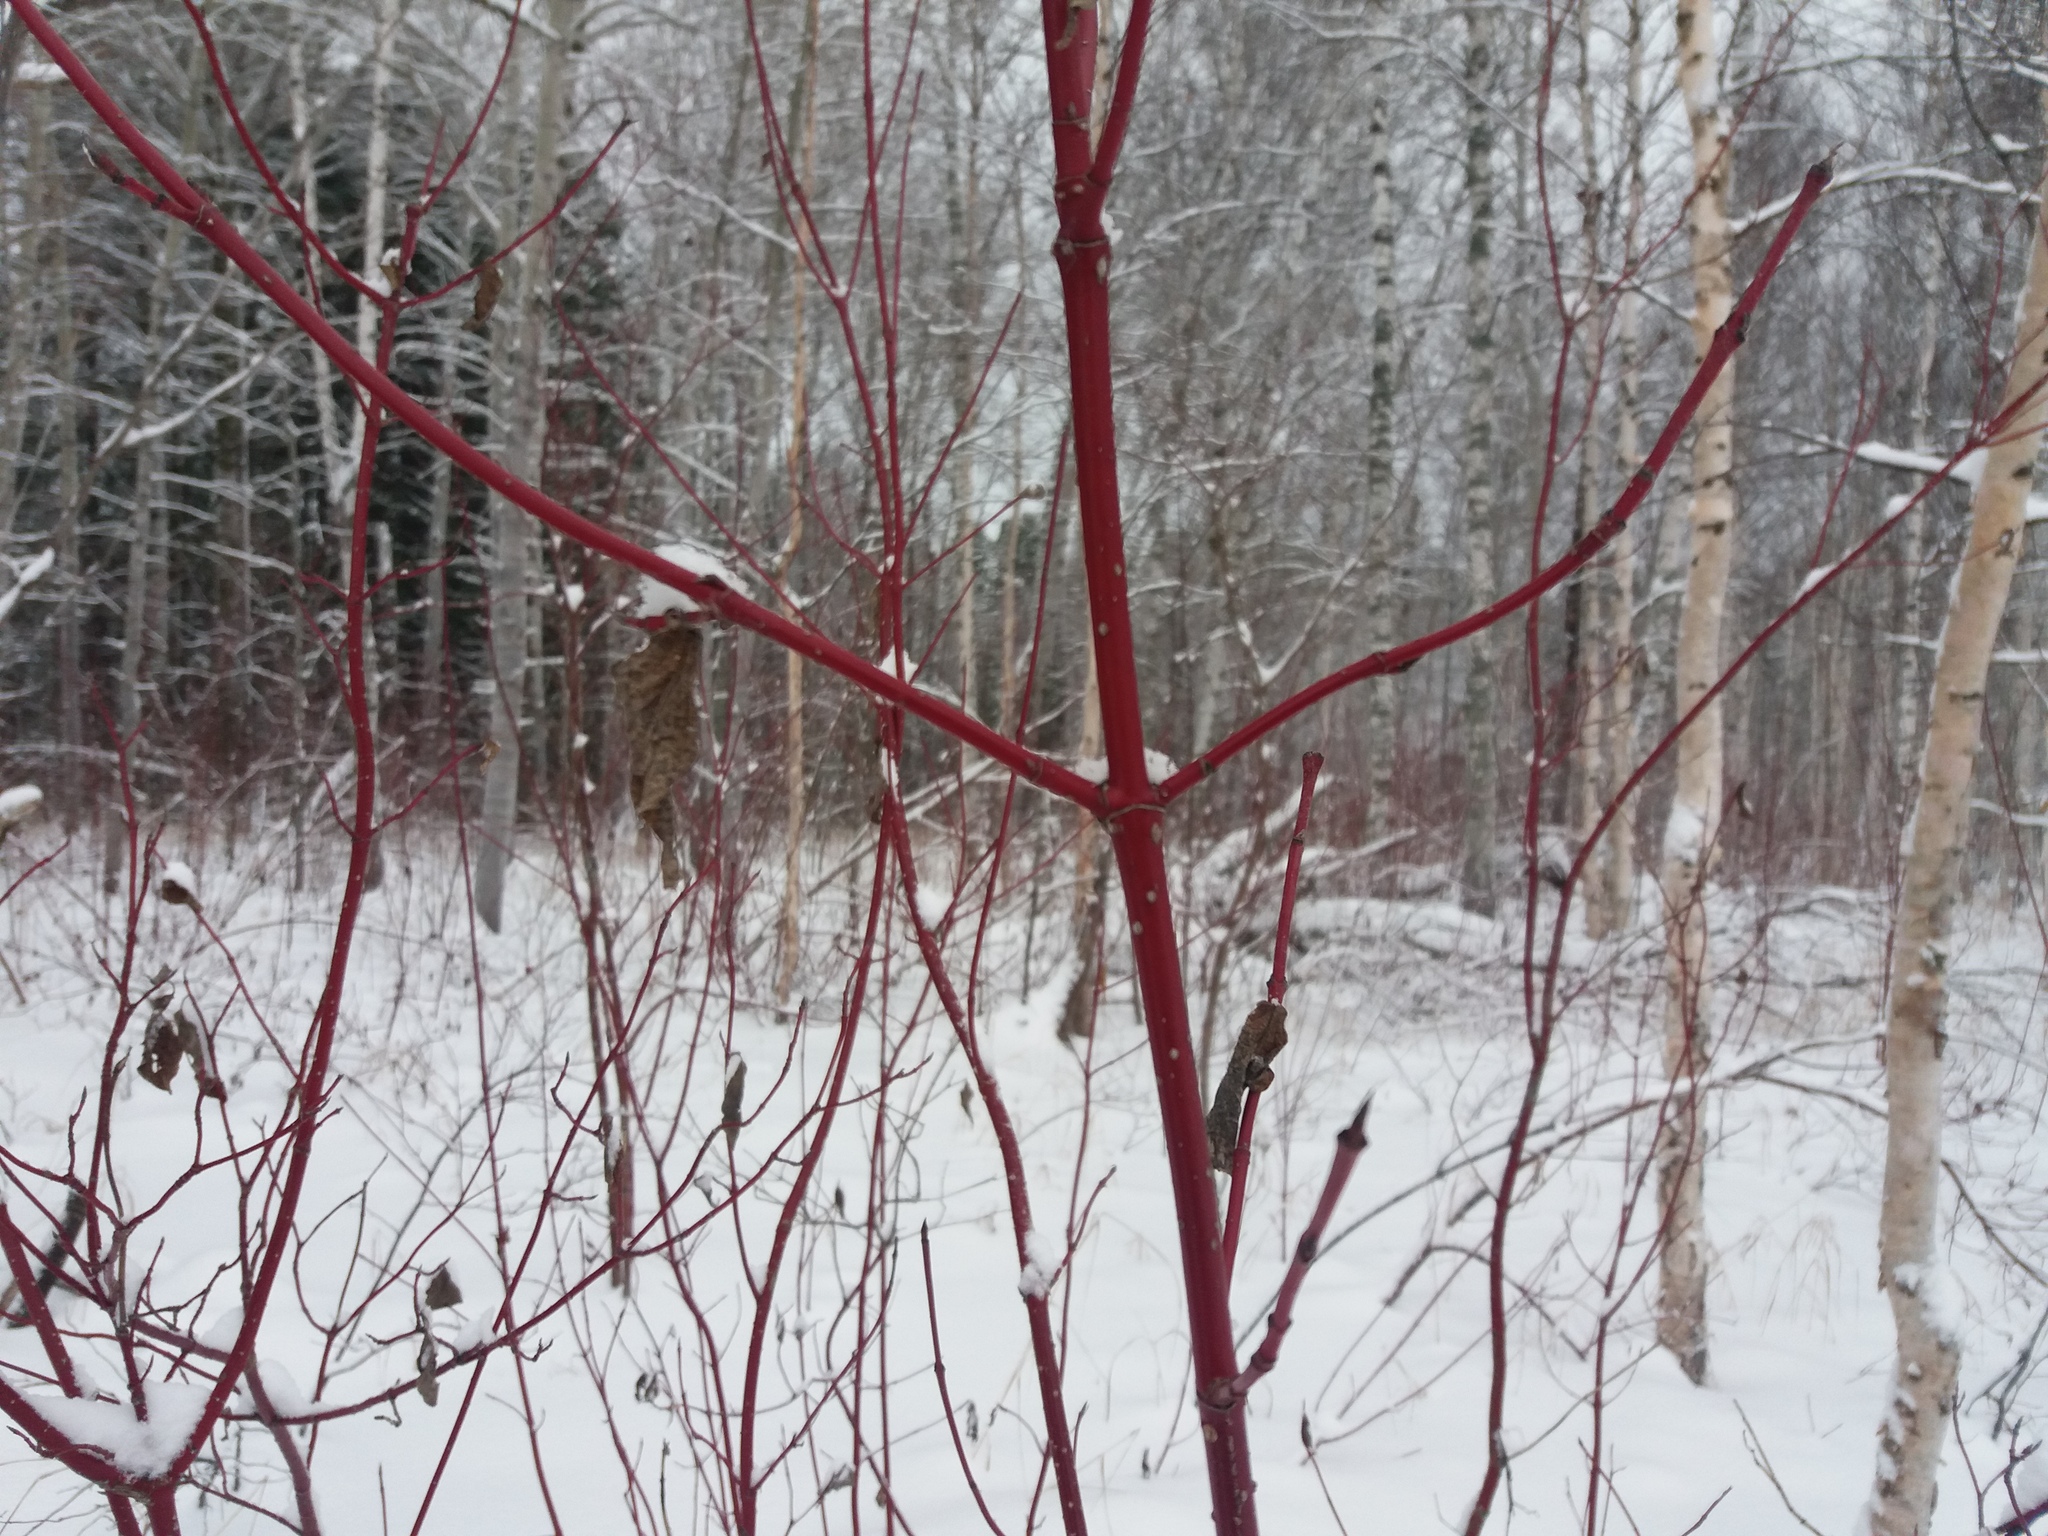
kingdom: Plantae
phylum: Tracheophyta
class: Magnoliopsida
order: Cornales
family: Cornaceae
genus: Cornus
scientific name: Cornus alba
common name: White dogwood
